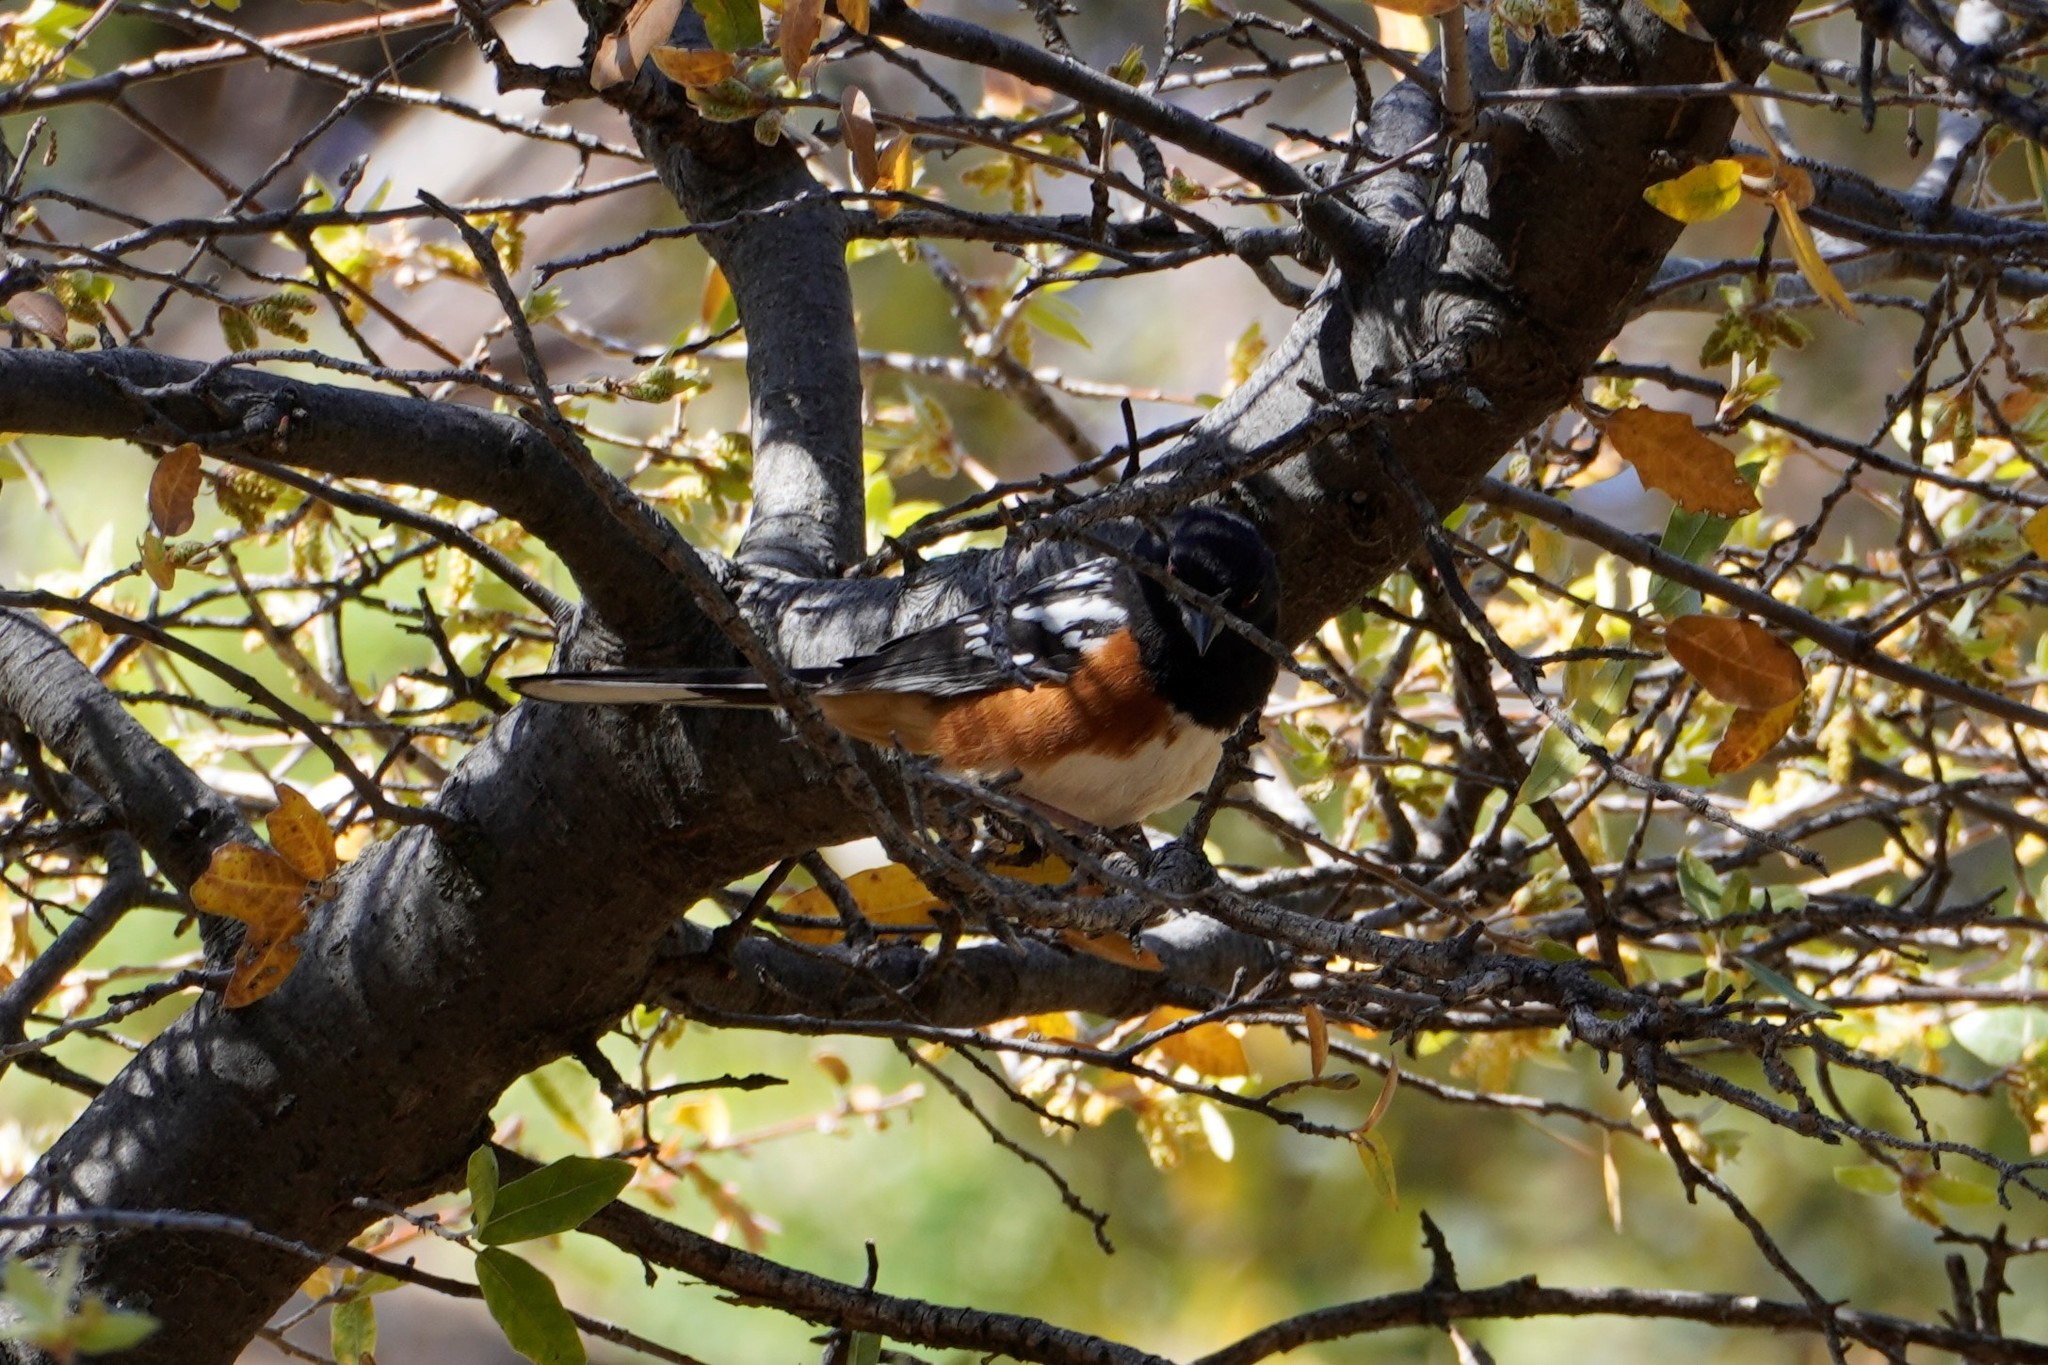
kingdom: Animalia
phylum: Chordata
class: Aves
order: Passeriformes
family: Passerellidae
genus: Pipilo
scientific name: Pipilo maculatus
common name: Spotted towhee
